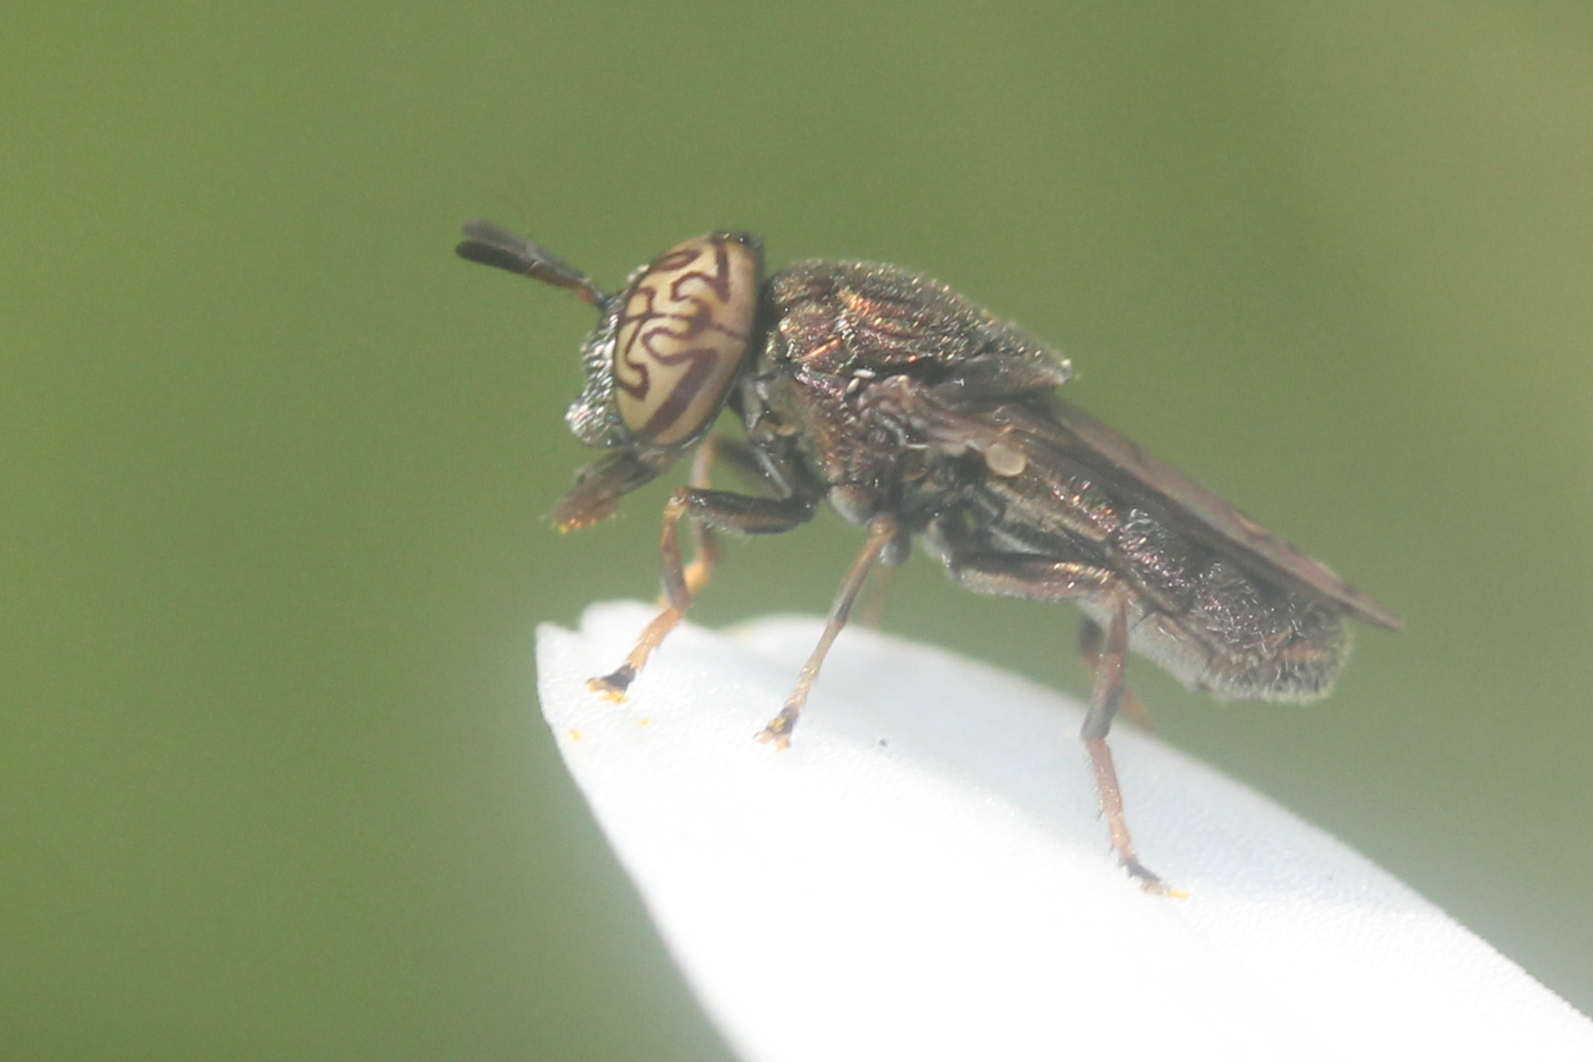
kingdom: Animalia
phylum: Arthropoda
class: Insecta
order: Diptera
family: Syrphidae
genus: Orthonevra
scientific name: Orthonevra nitida
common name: Wavy mucksucker
